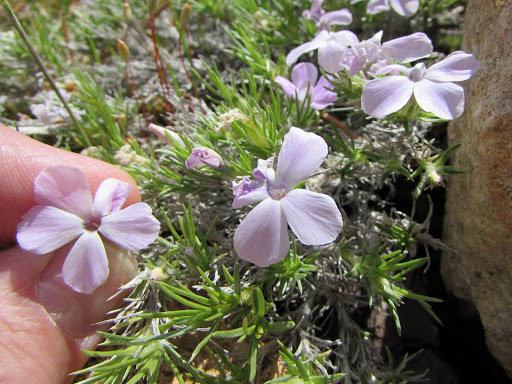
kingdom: Plantae
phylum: Tracheophyta
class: Magnoliopsida
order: Ericales
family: Polemoniaceae
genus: Phlox
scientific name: Phlox diffusa
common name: Mat phlox
